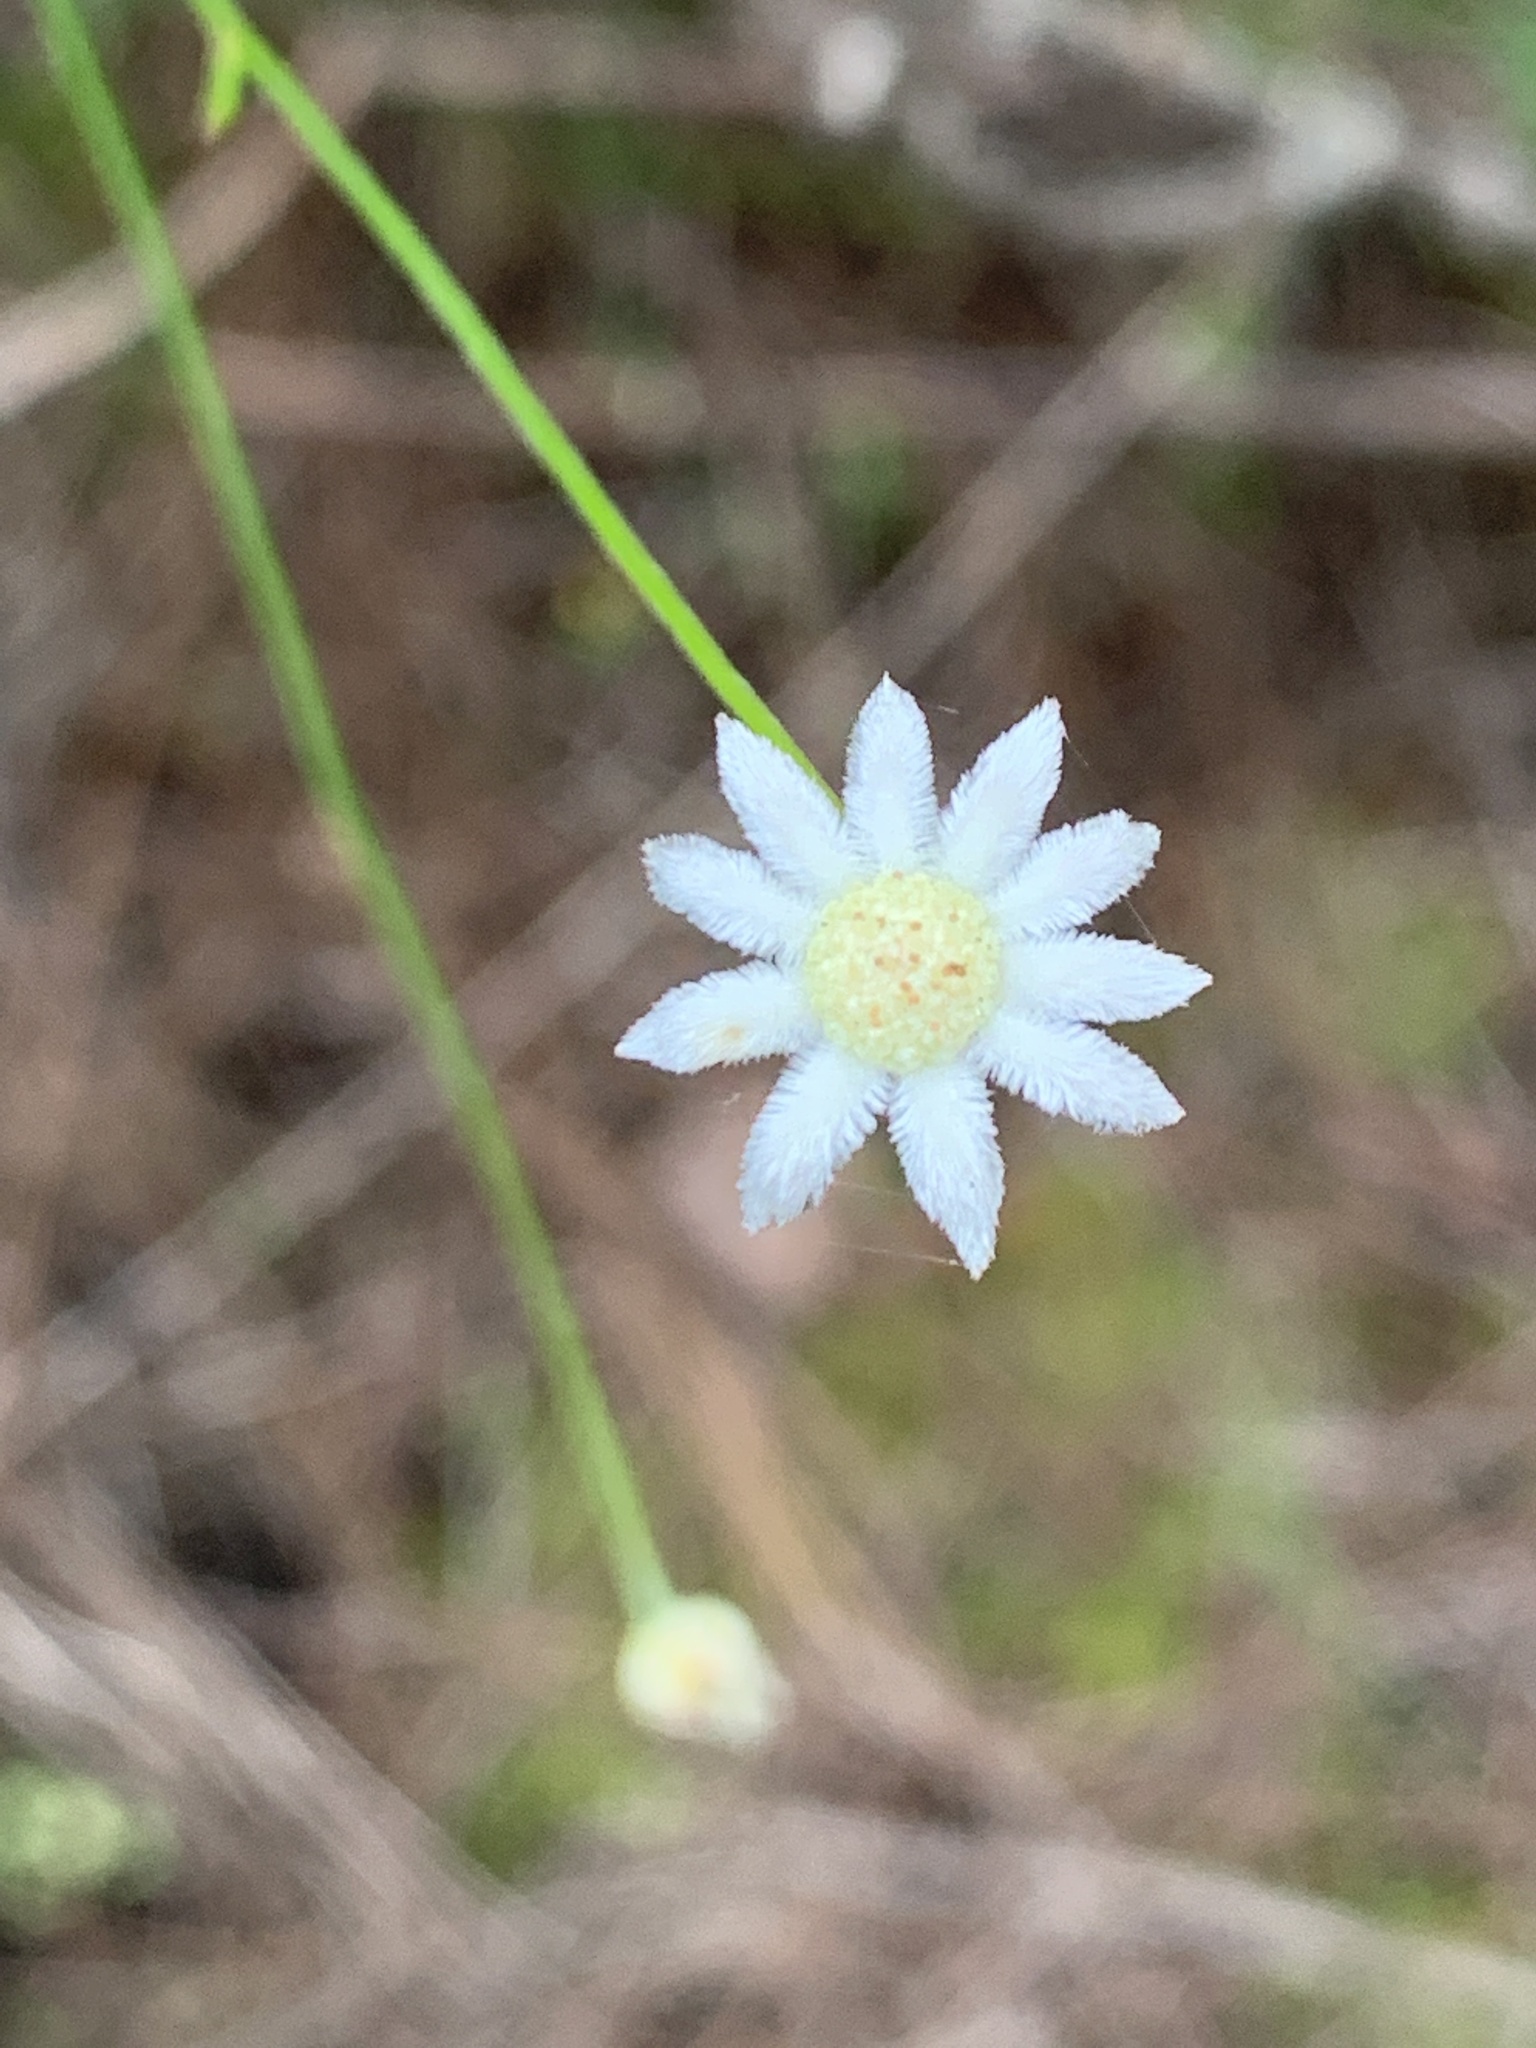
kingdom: Plantae
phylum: Tracheophyta
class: Magnoliopsida
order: Apiales
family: Apiaceae
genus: Actinotus
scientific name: Actinotus minor
